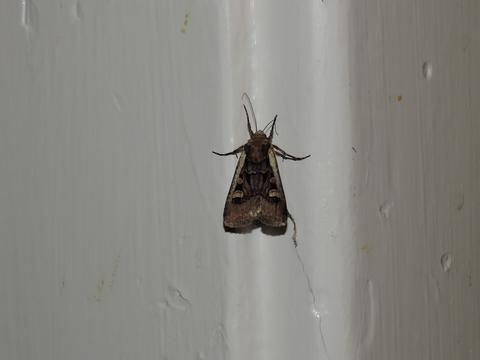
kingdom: Animalia
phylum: Arthropoda
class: Insecta
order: Lepidoptera
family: Noctuidae
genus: Euxoa
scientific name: Euxoa obeliscoides
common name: Obelisk dart moth
